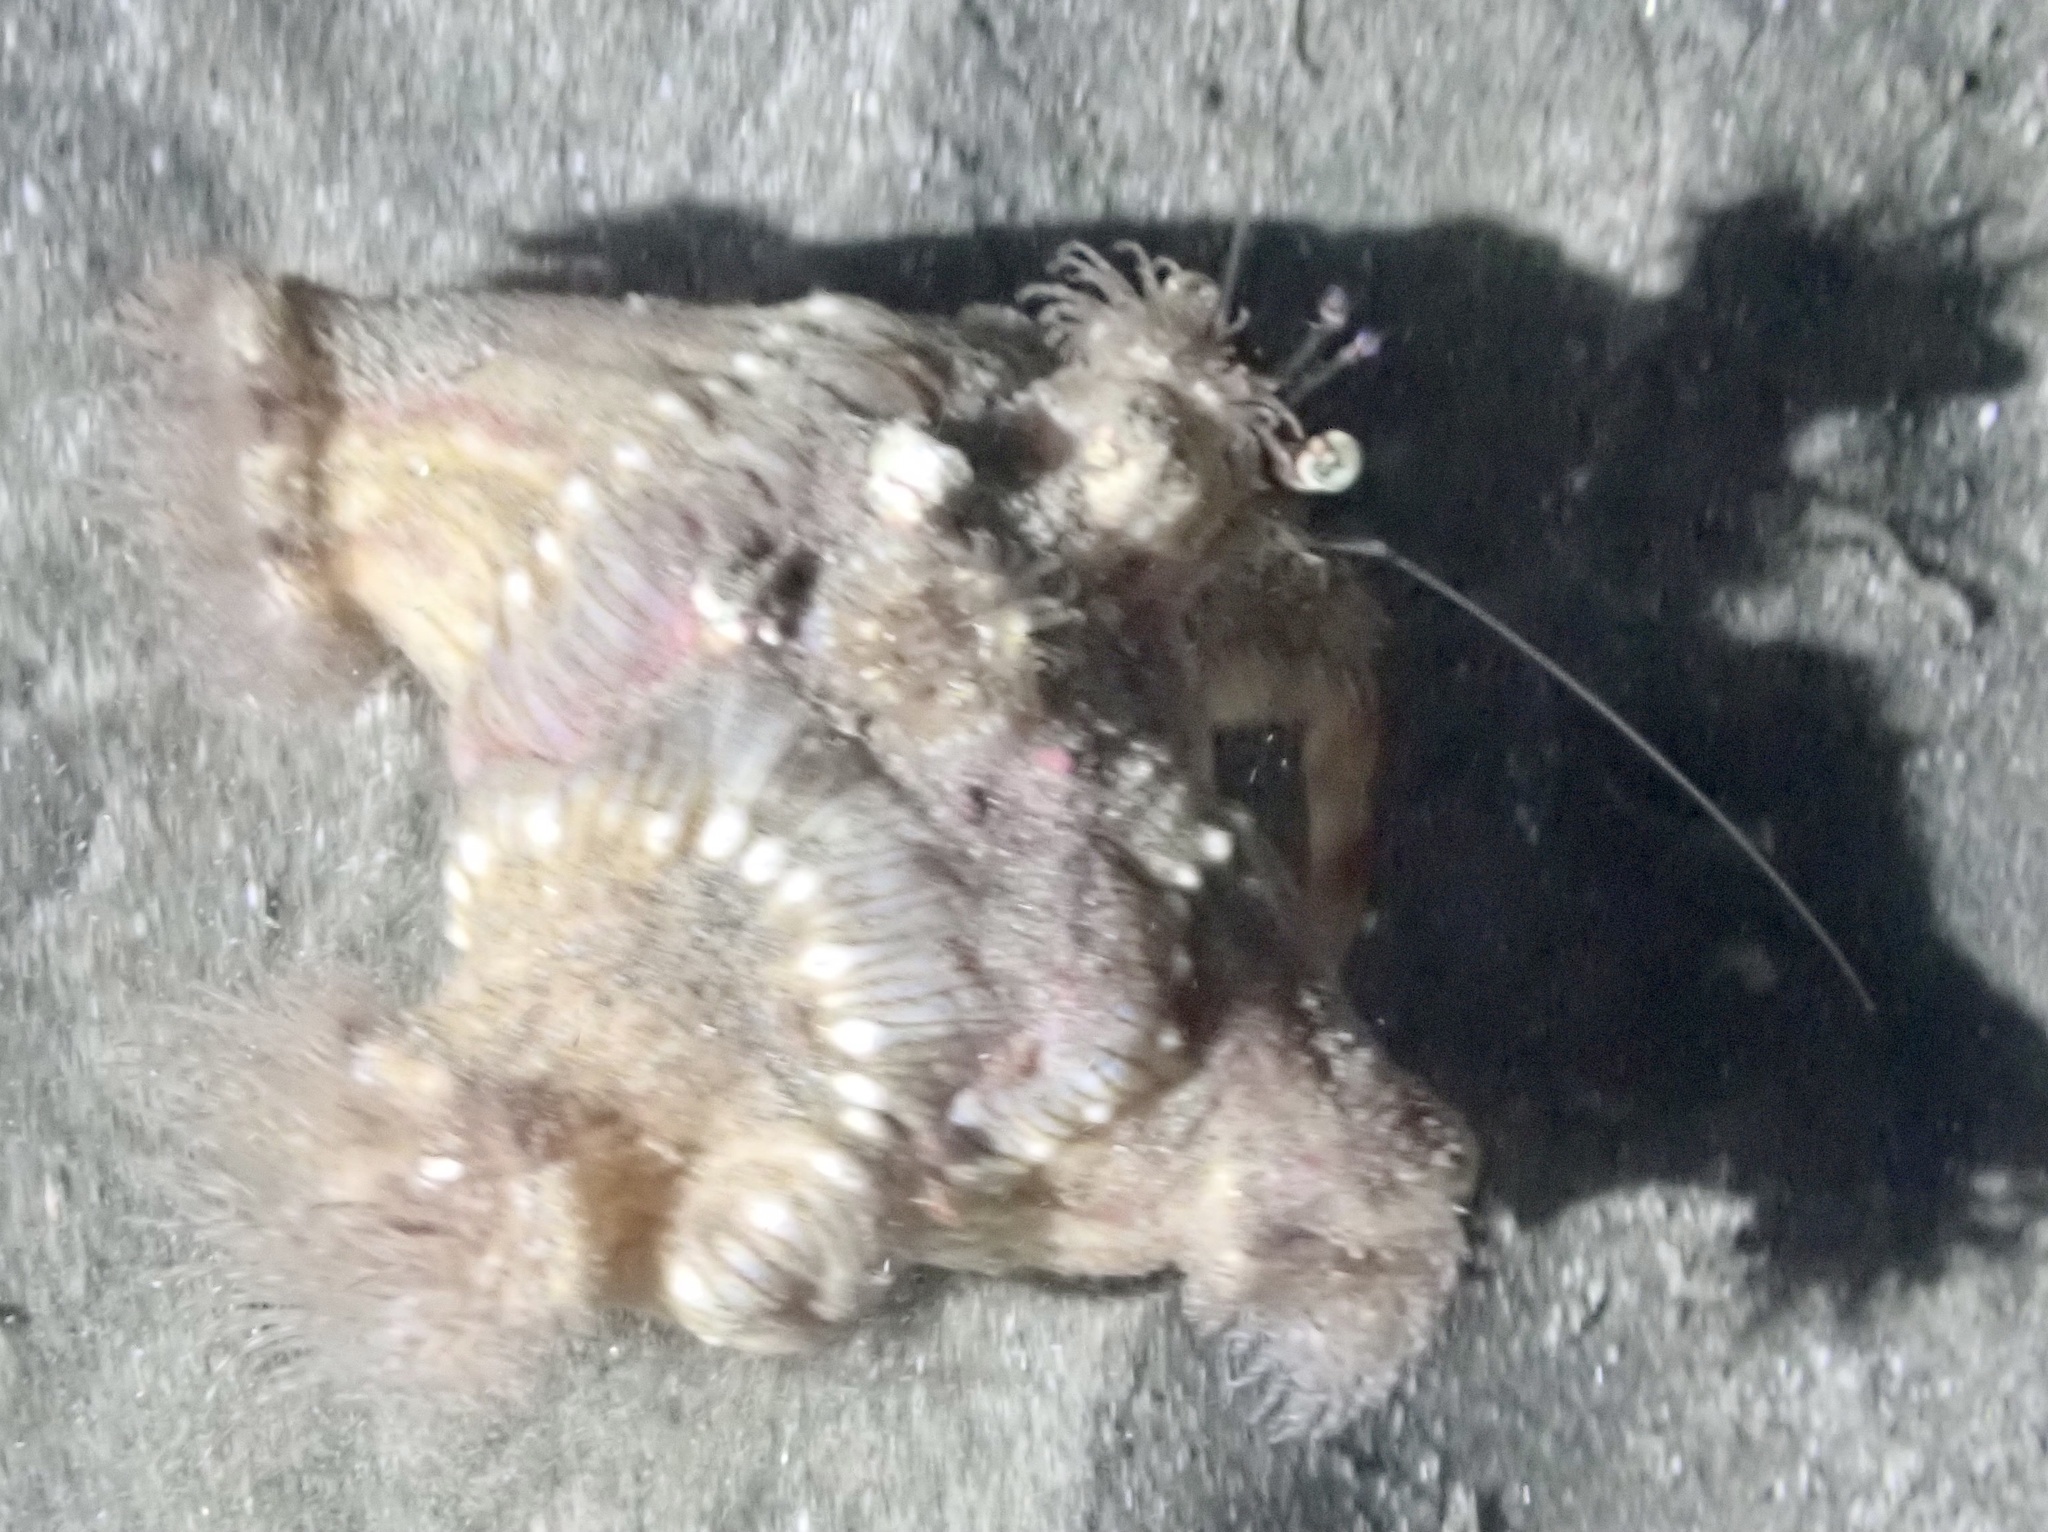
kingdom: Animalia
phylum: Arthropoda
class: Malacostraca
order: Decapoda
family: Diogenidae
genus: Dardanus
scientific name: Dardanus tinctor
